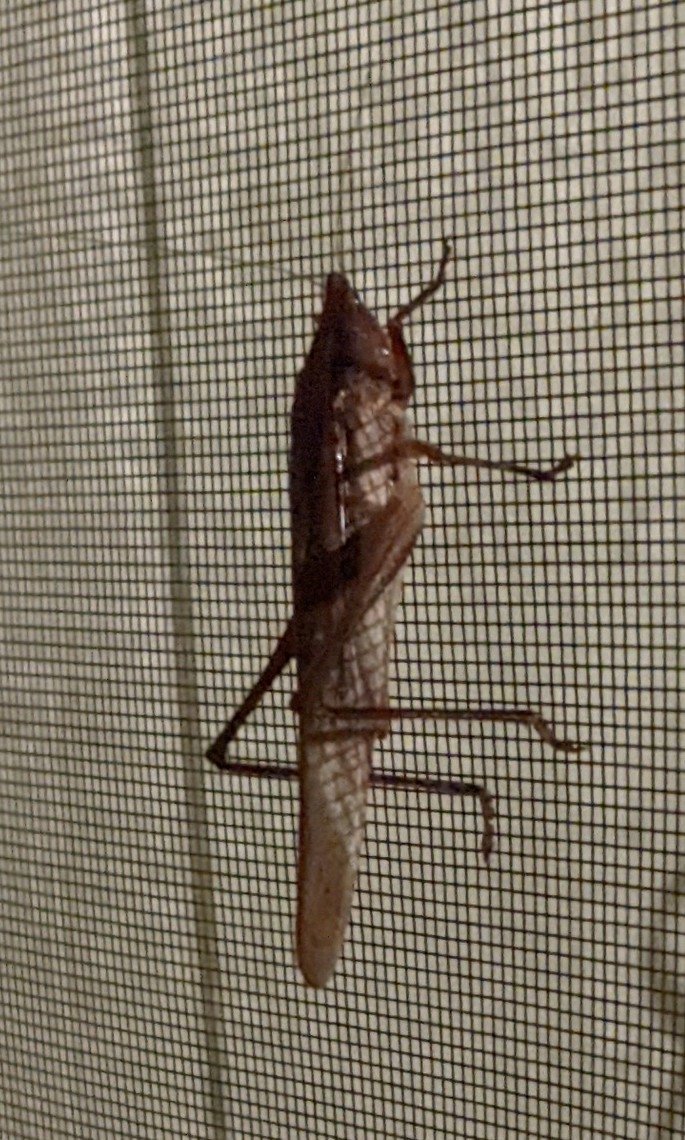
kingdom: Animalia
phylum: Arthropoda
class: Insecta
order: Orthoptera
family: Tettigoniidae
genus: Neoconocephalus
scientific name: Neoconocephalus triops
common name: Broad-tipped conehead
